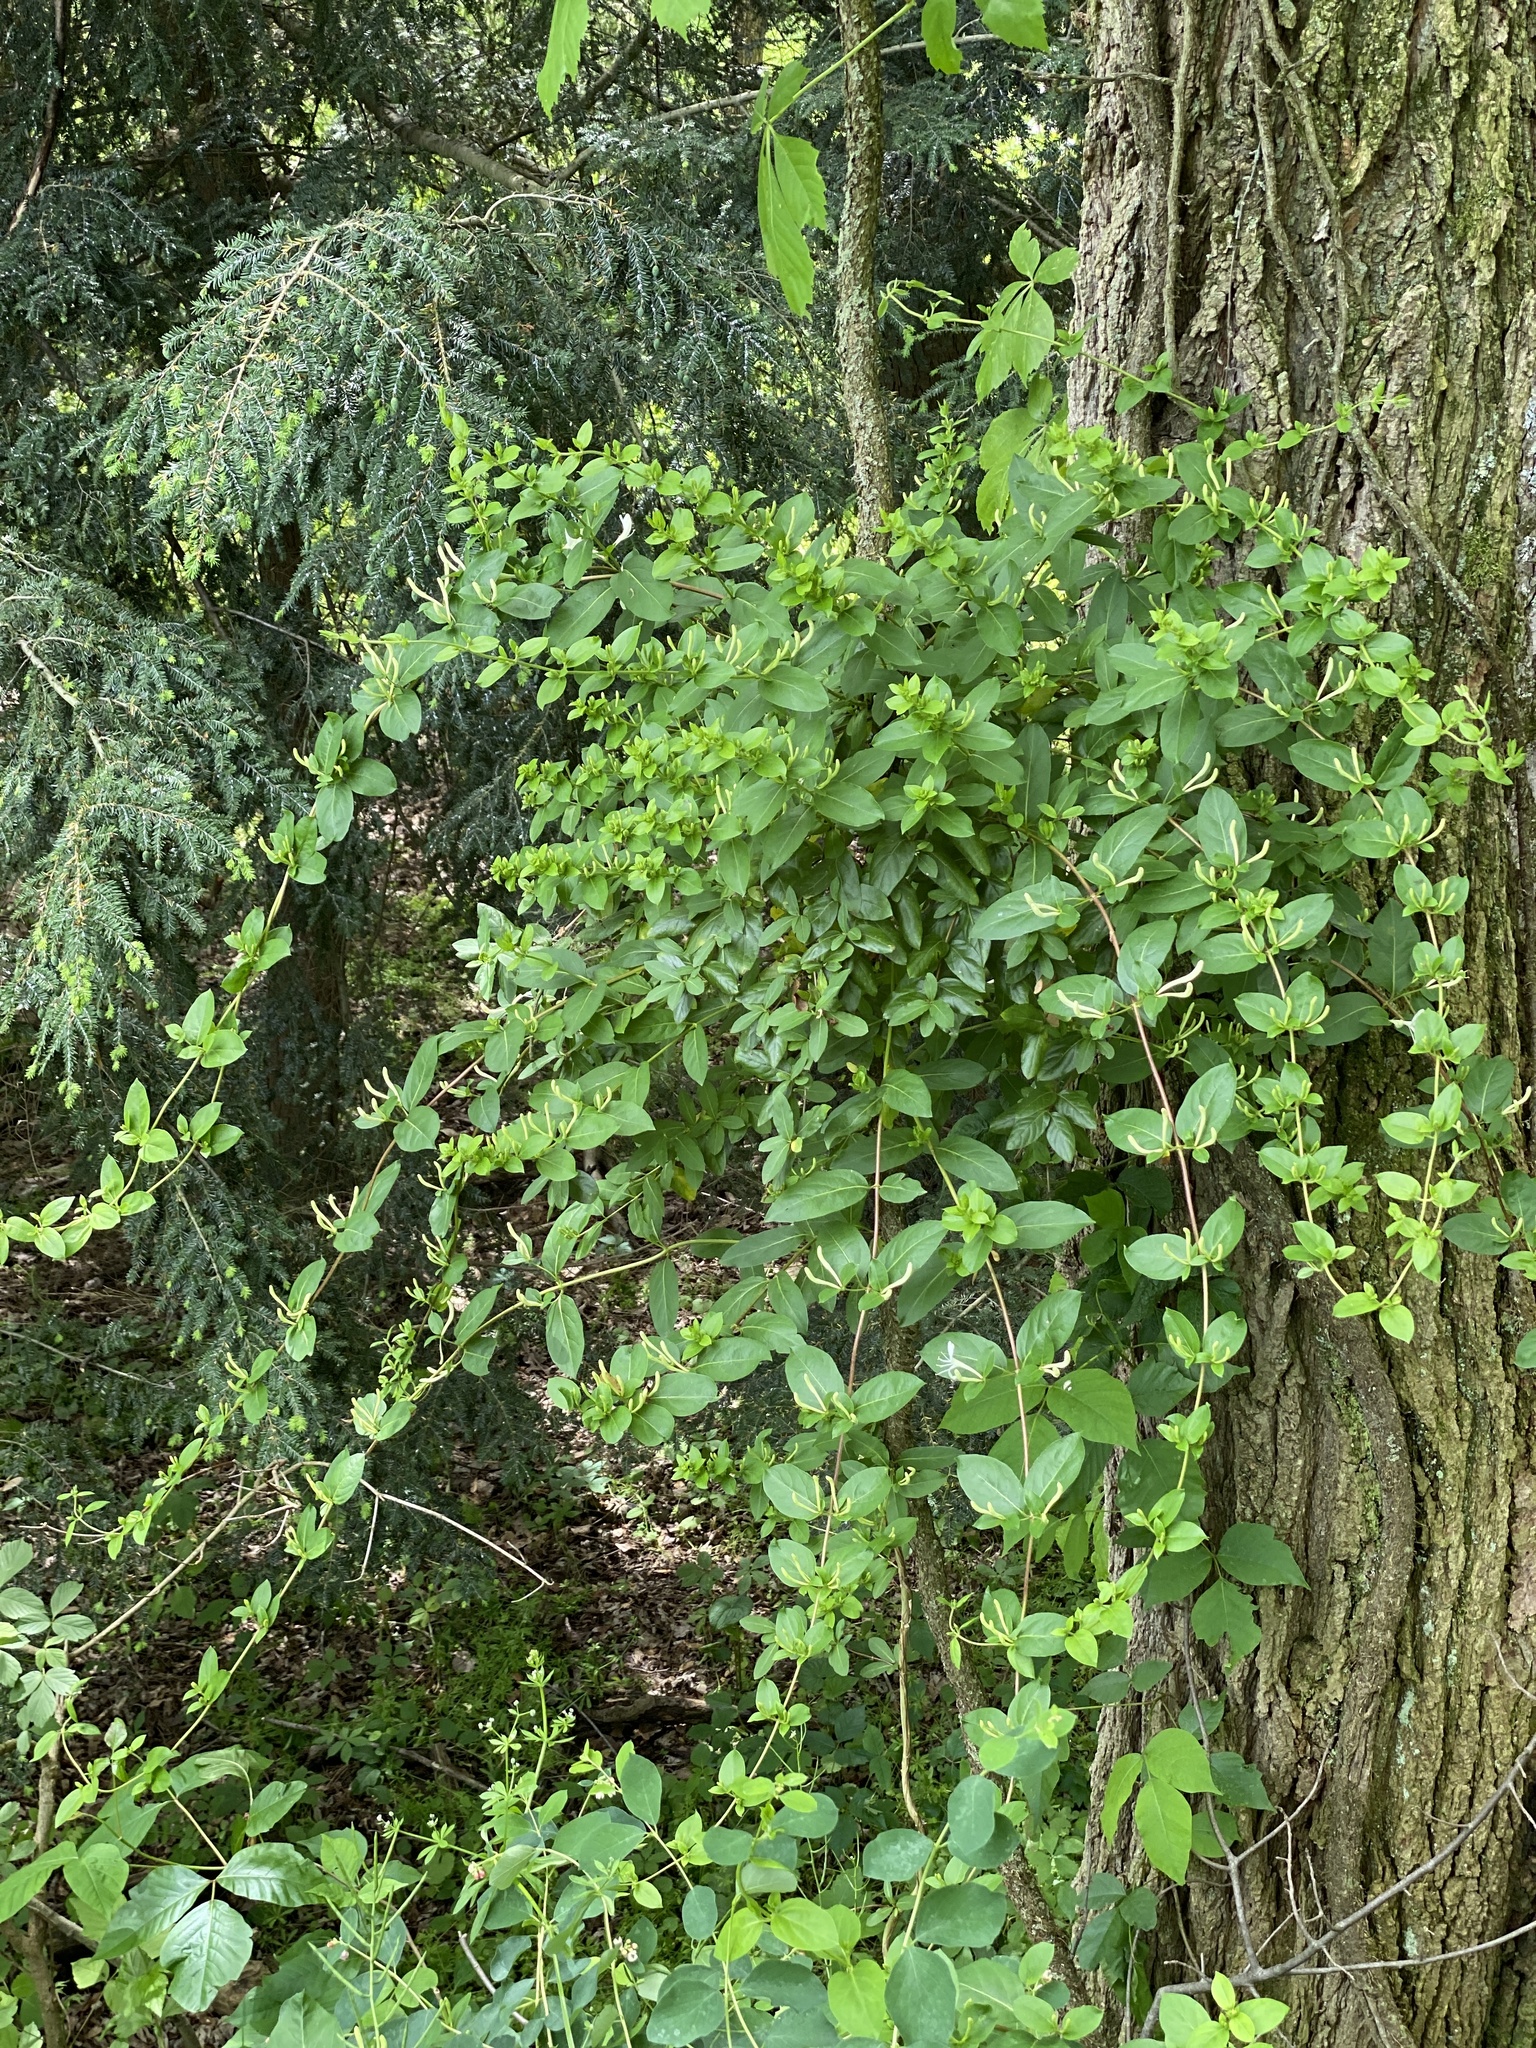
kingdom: Plantae
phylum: Tracheophyta
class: Magnoliopsida
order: Dipsacales
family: Caprifoliaceae
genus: Lonicera
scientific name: Lonicera japonica
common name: Japanese honeysuckle
